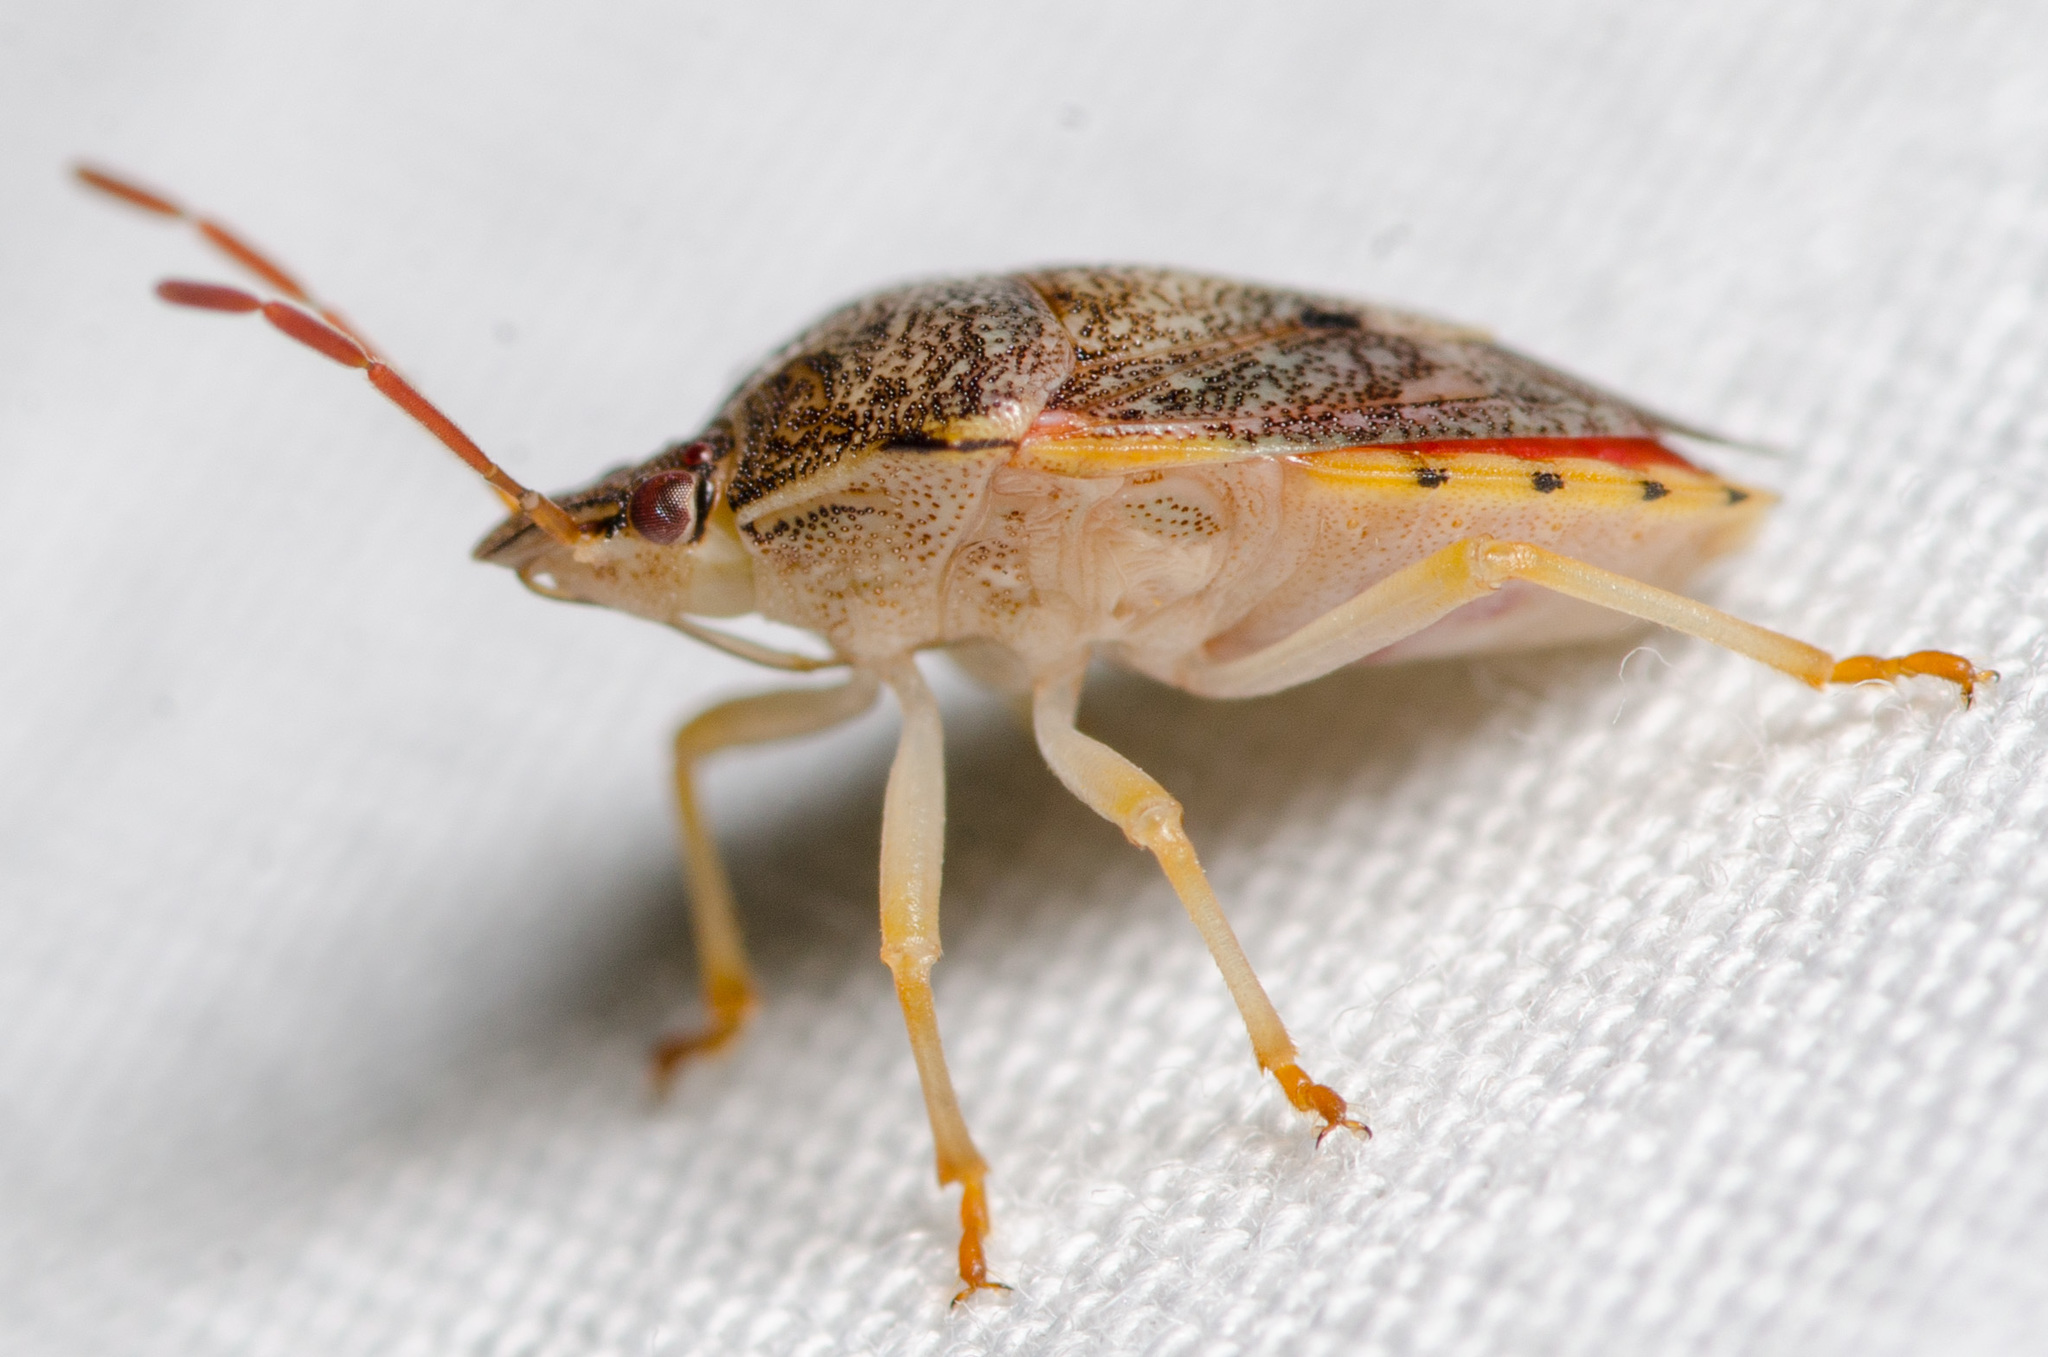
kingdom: Animalia
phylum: Arthropoda
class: Insecta
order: Hemiptera
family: Pentatomidae
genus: Dendrocoris
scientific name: Dendrocoris humeralis
